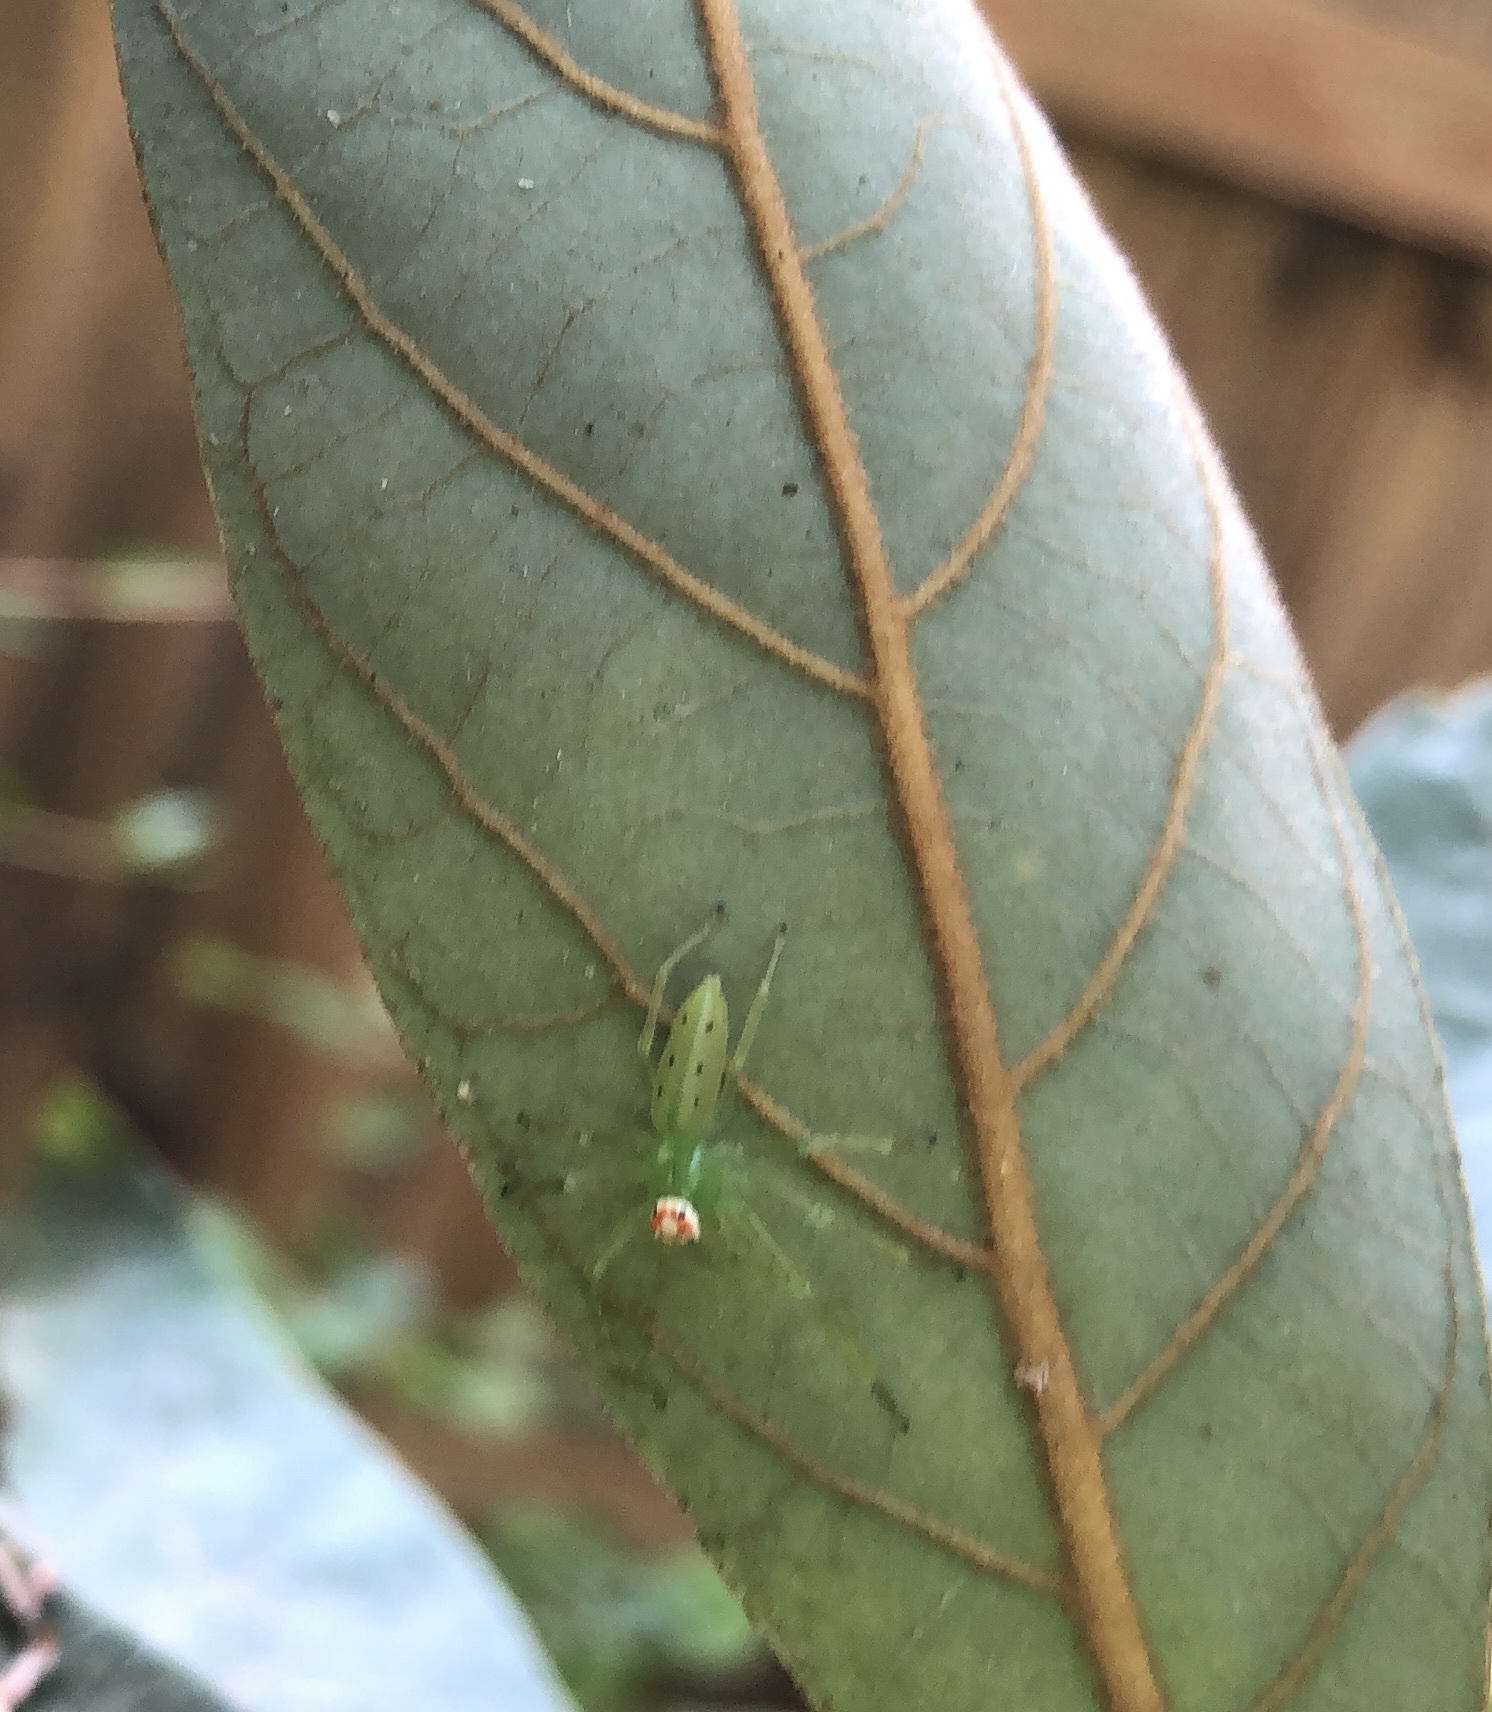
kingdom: Animalia
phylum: Arthropoda
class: Arachnida
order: Araneae
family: Salticidae
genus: Lyssomanes
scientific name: Lyssomanes viridis
